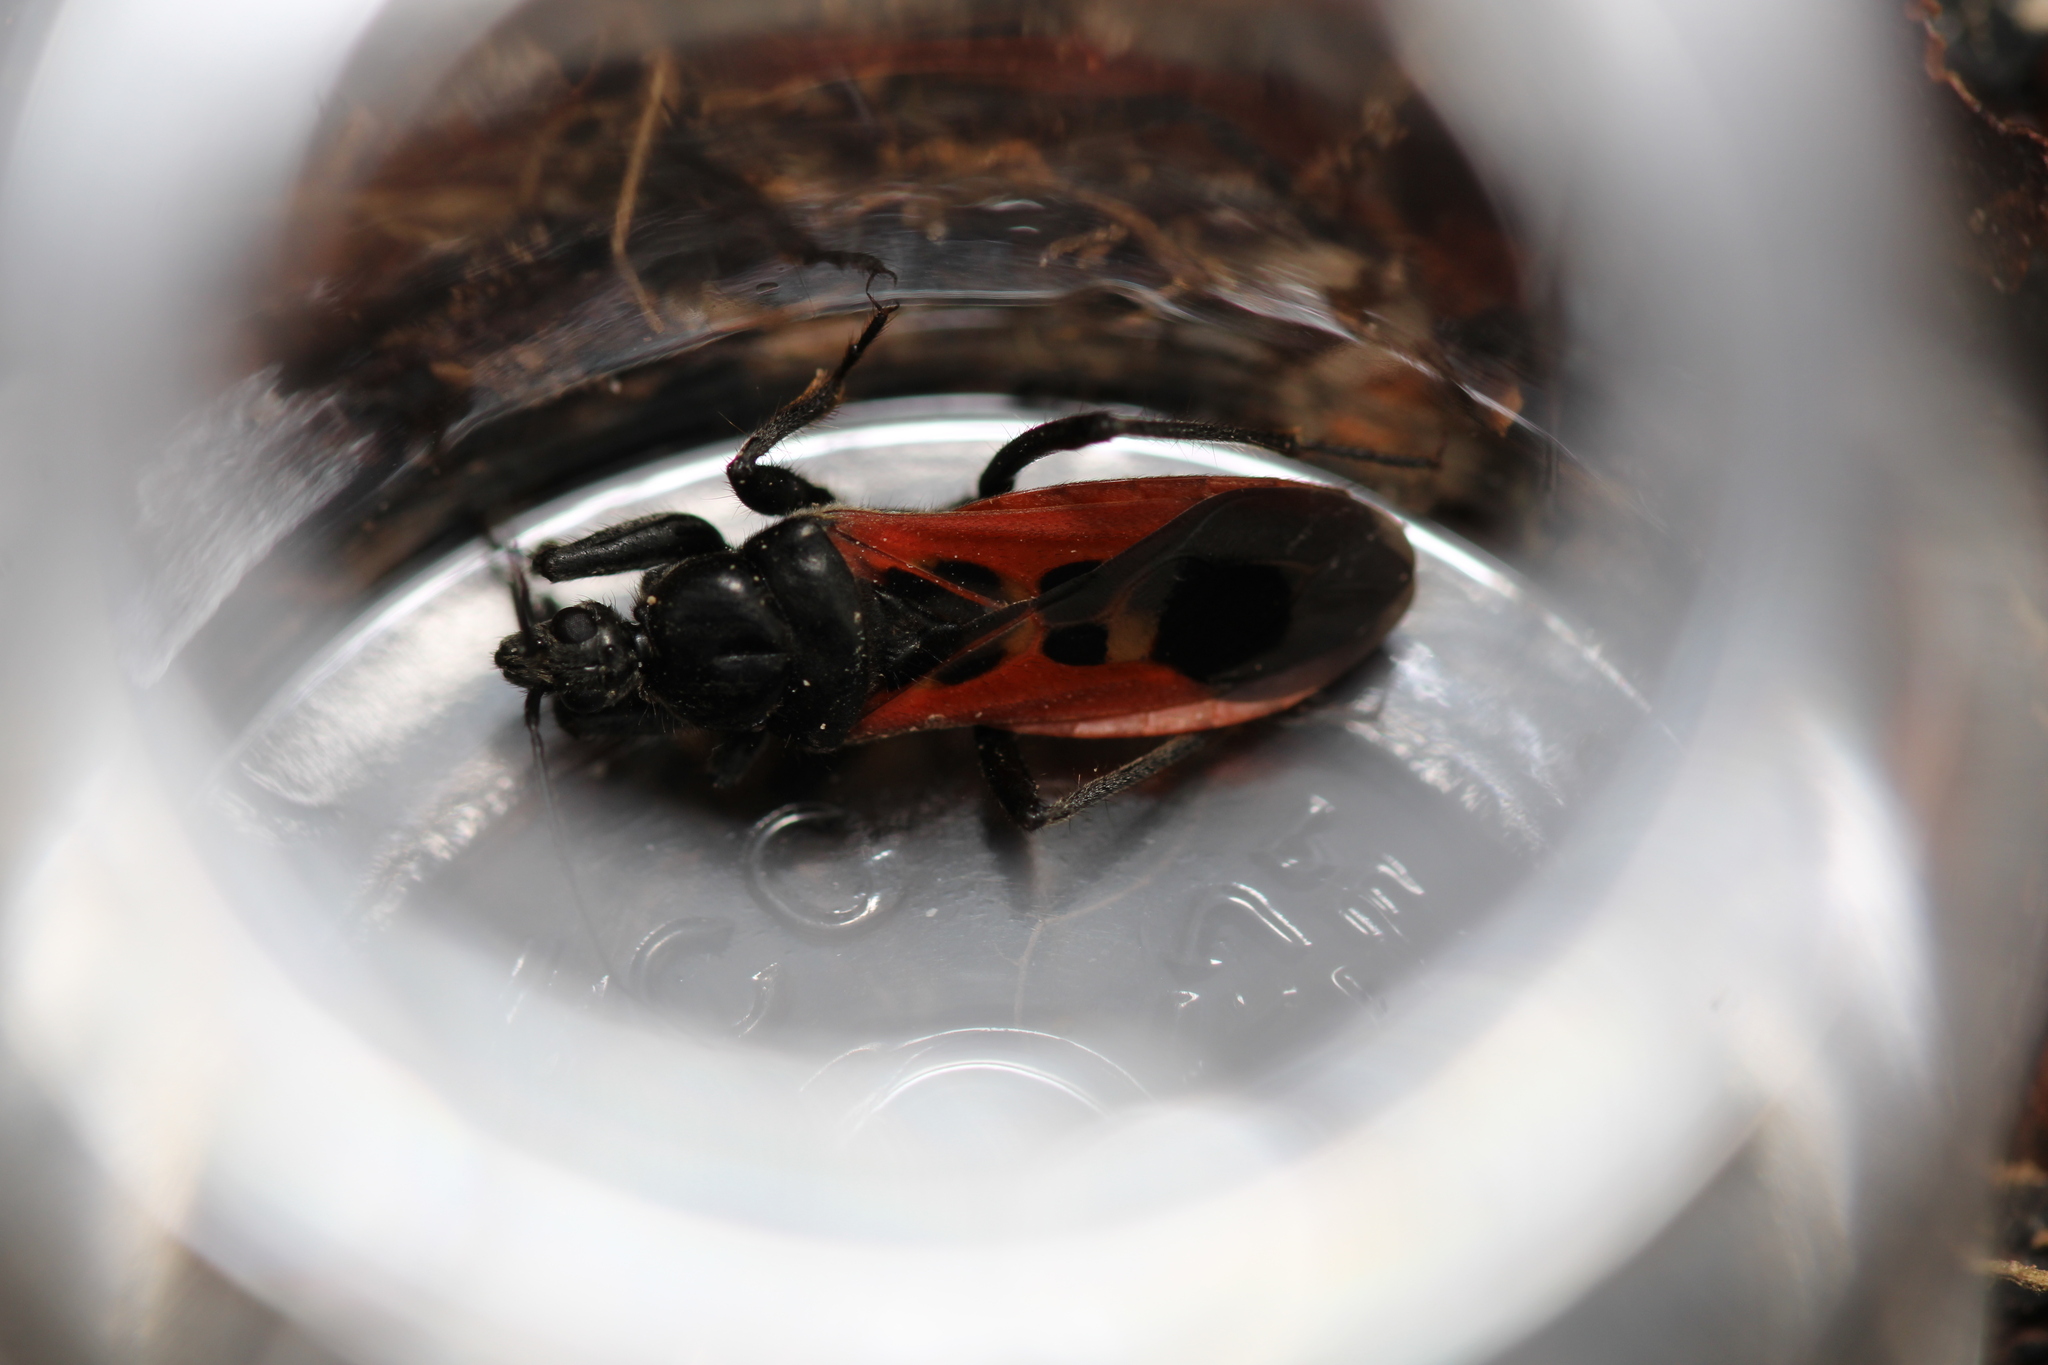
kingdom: Animalia
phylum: Arthropoda
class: Insecta
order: Hemiptera
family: Reduviidae
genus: Peirates
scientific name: Peirates hybridus
